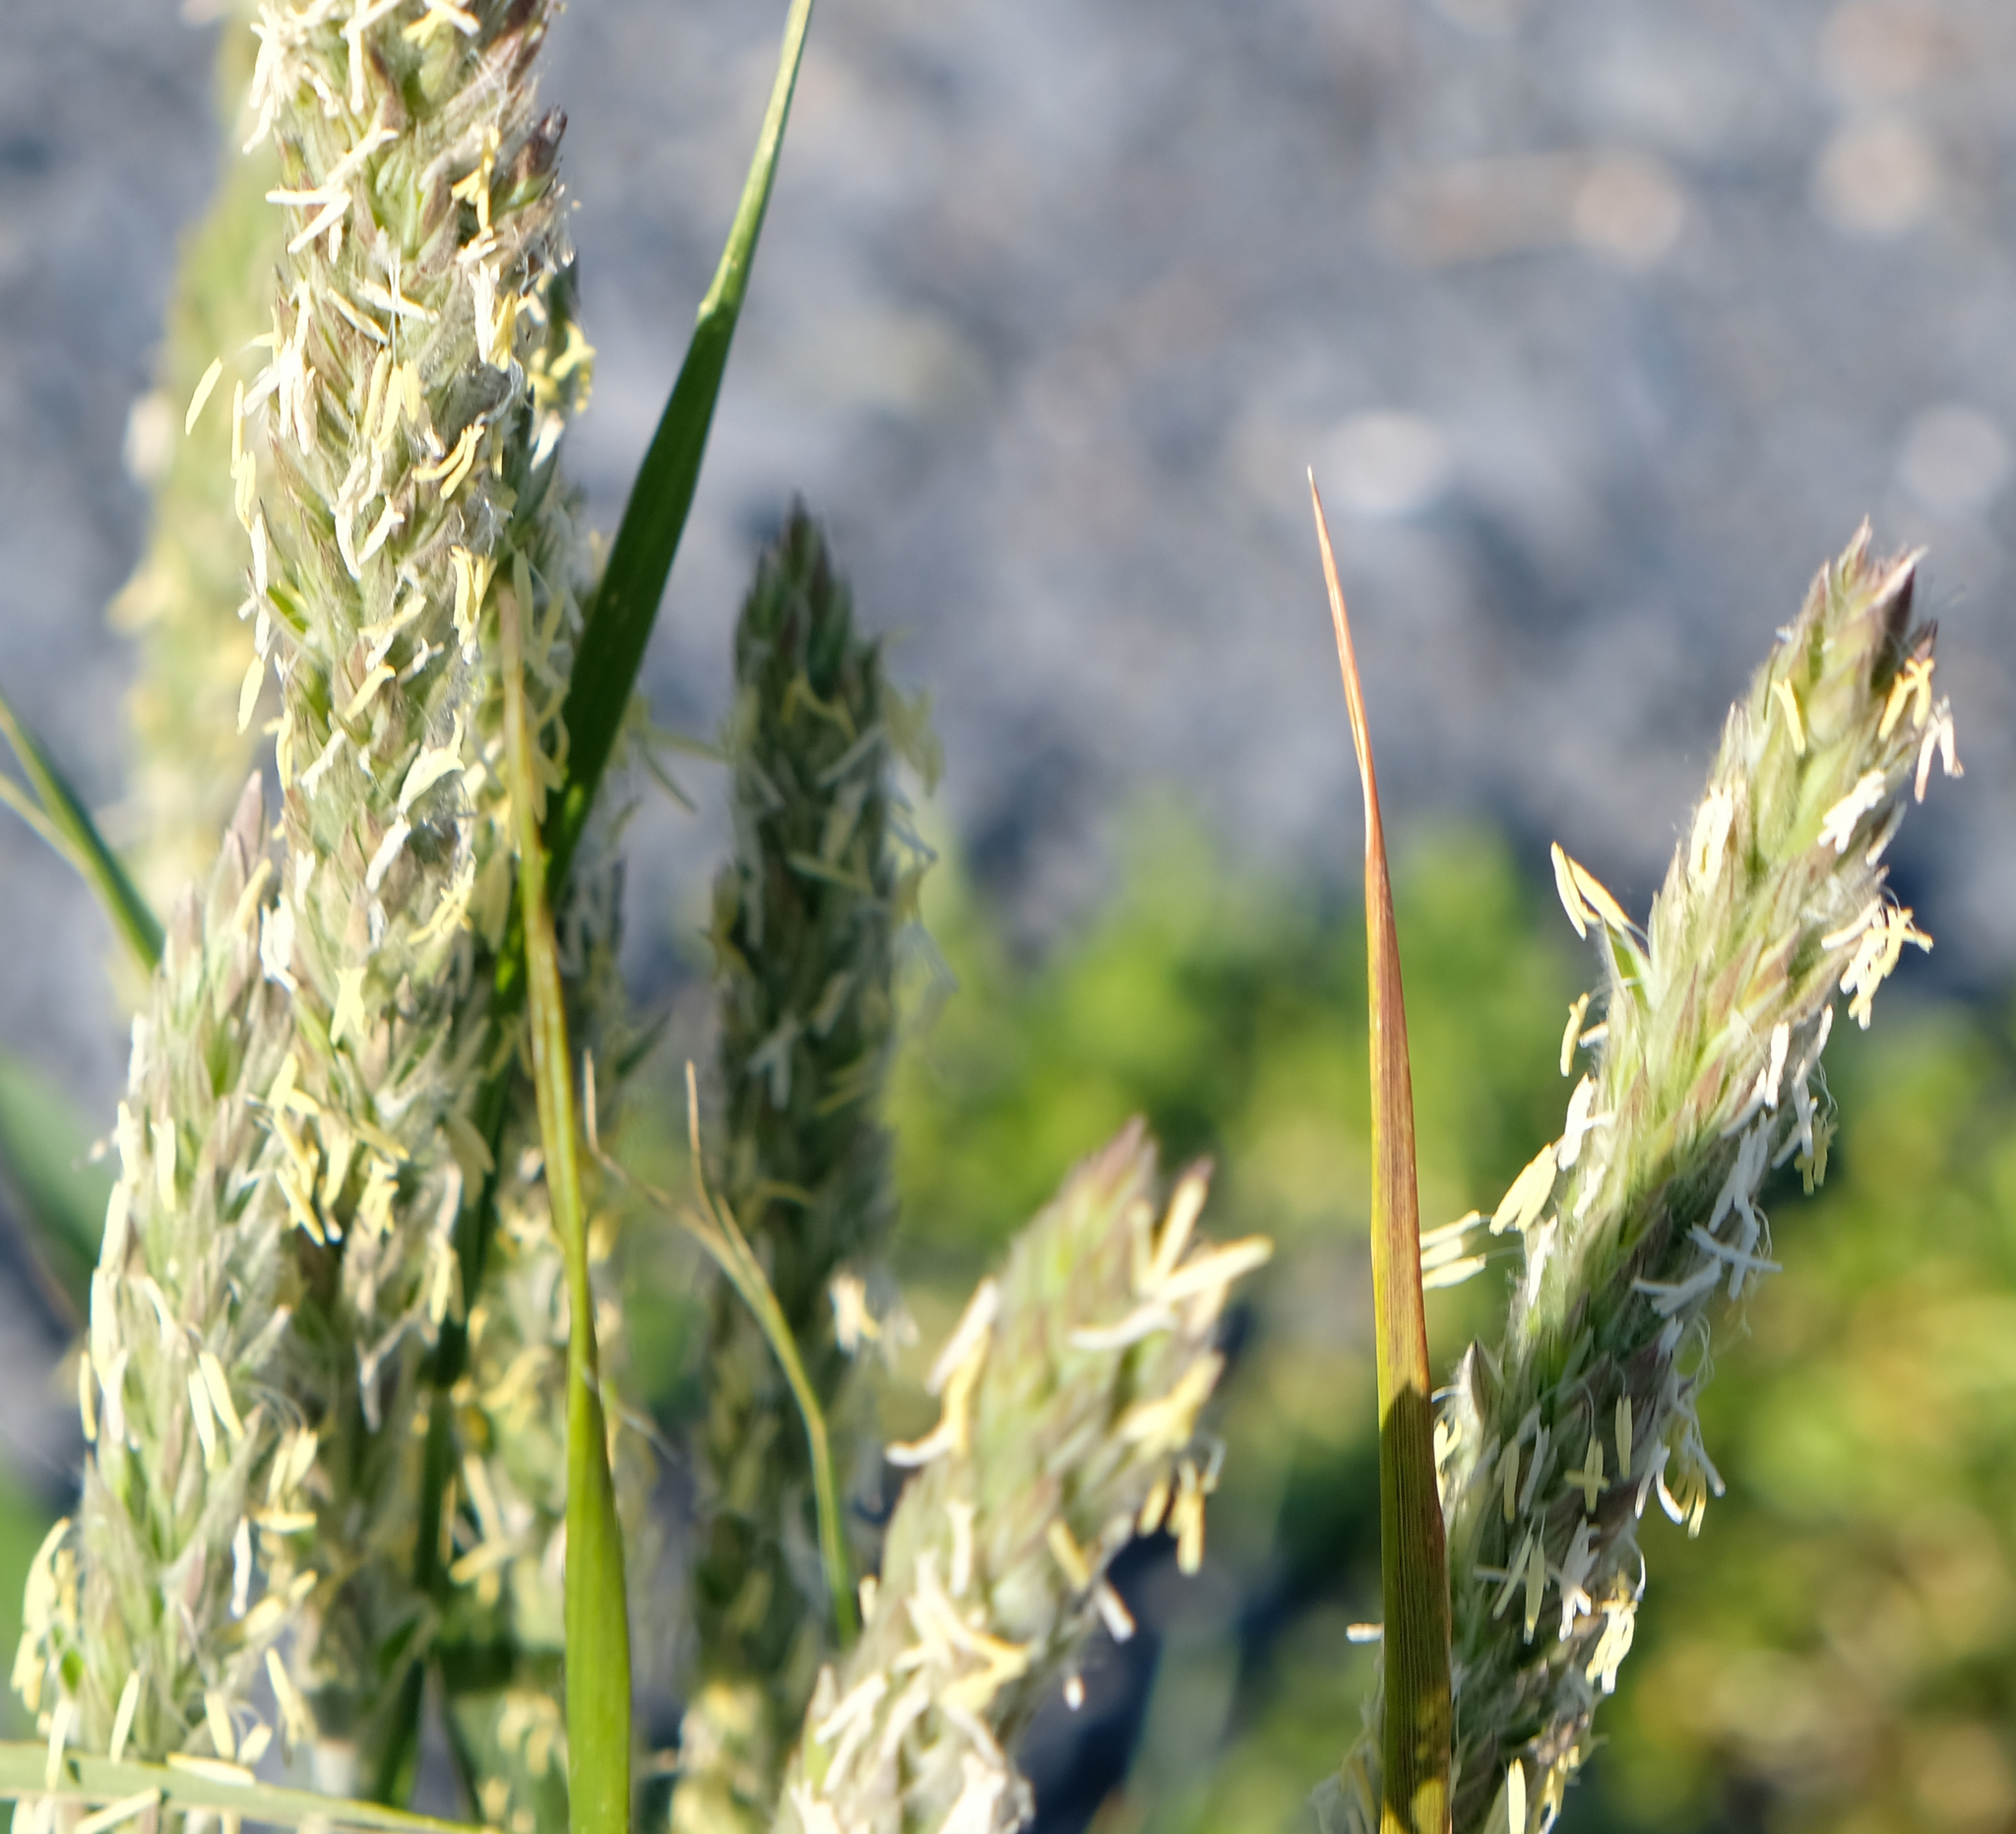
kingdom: Plantae
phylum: Tracheophyta
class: Liliopsida
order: Poales
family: Poaceae
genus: Leymus
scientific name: Leymus mollis
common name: American dune grass
